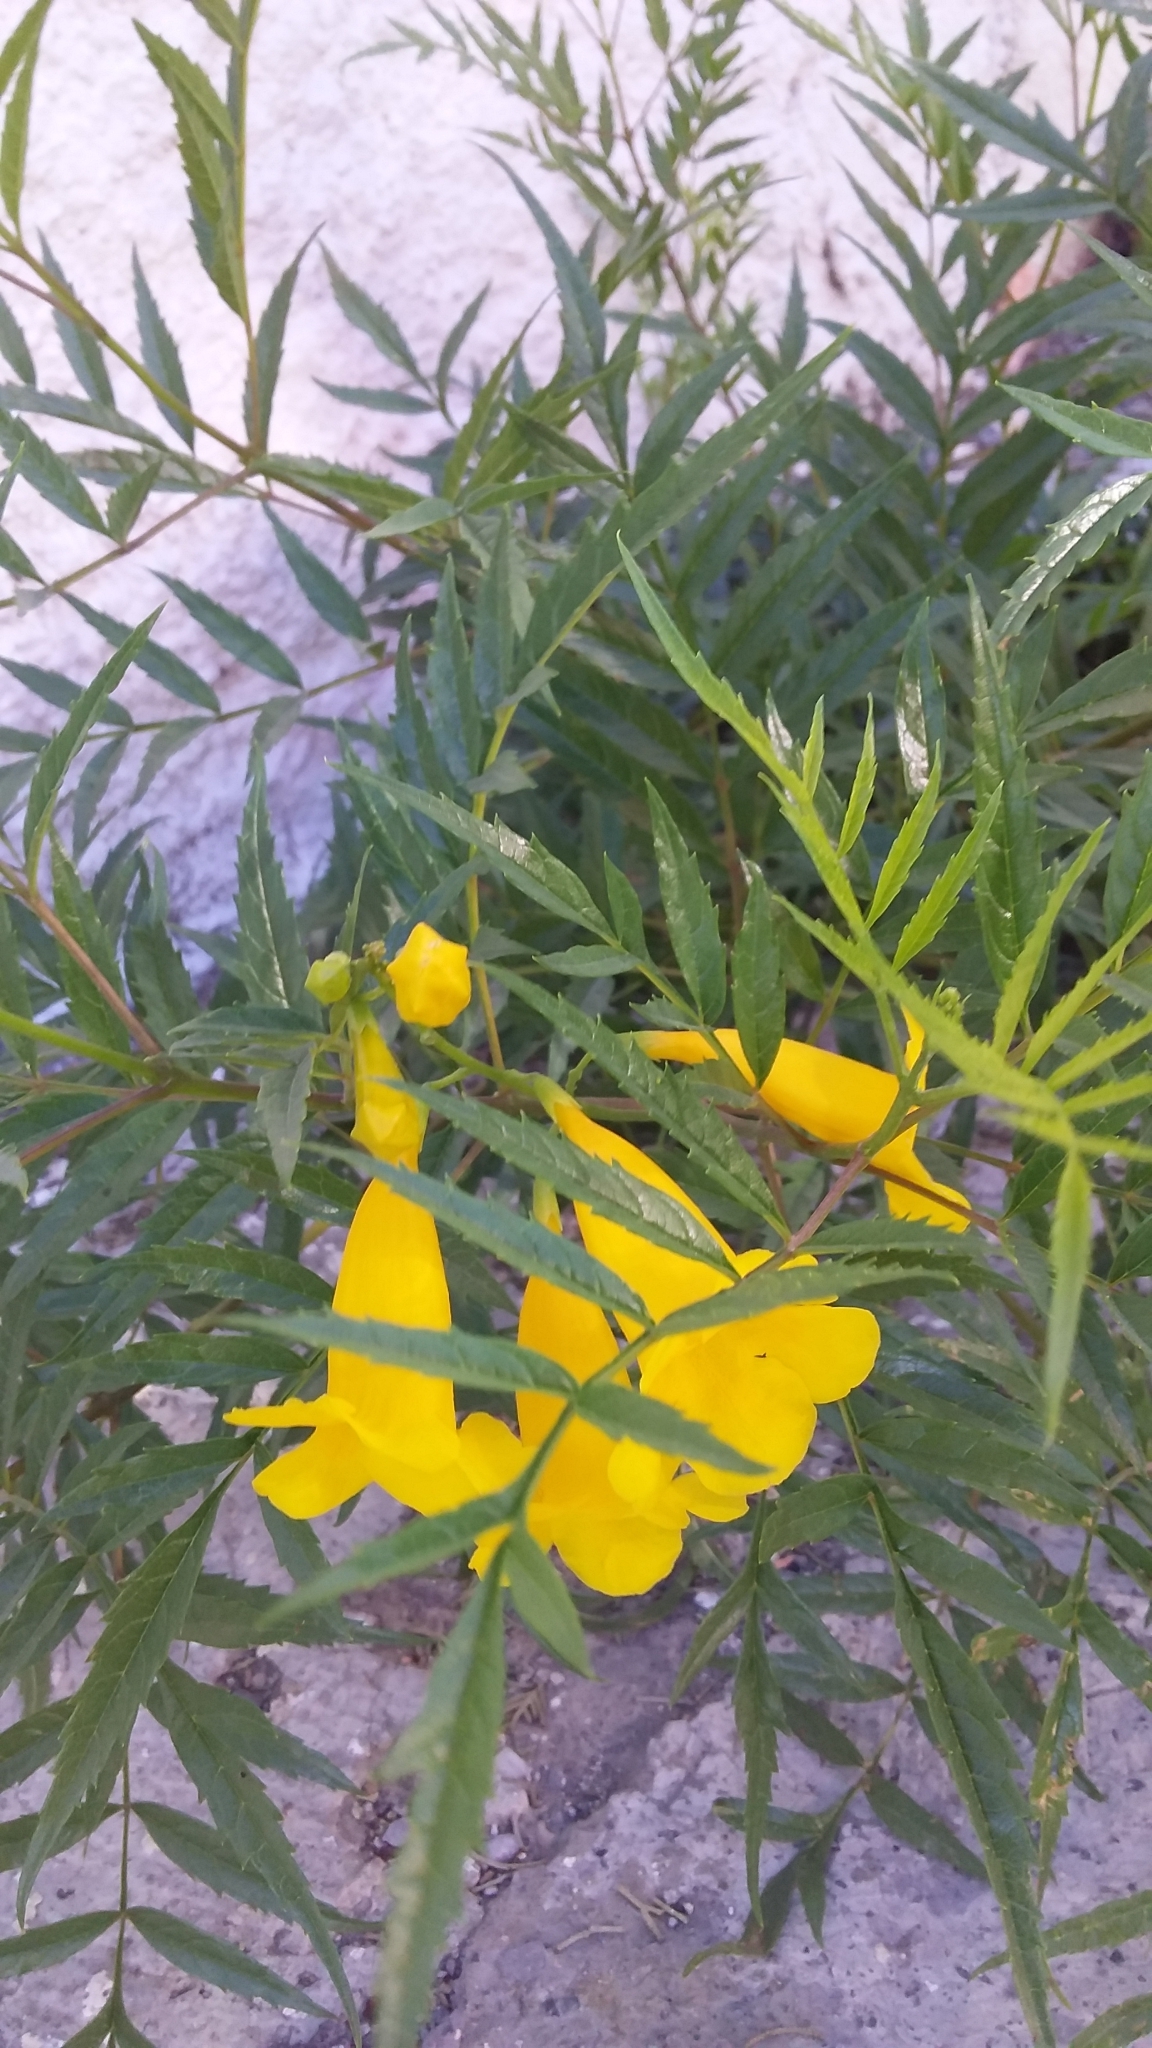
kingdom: Plantae
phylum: Tracheophyta
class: Magnoliopsida
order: Lamiales
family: Bignoniaceae
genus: Tecoma
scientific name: Tecoma stans
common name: Yellow trumpetbush
